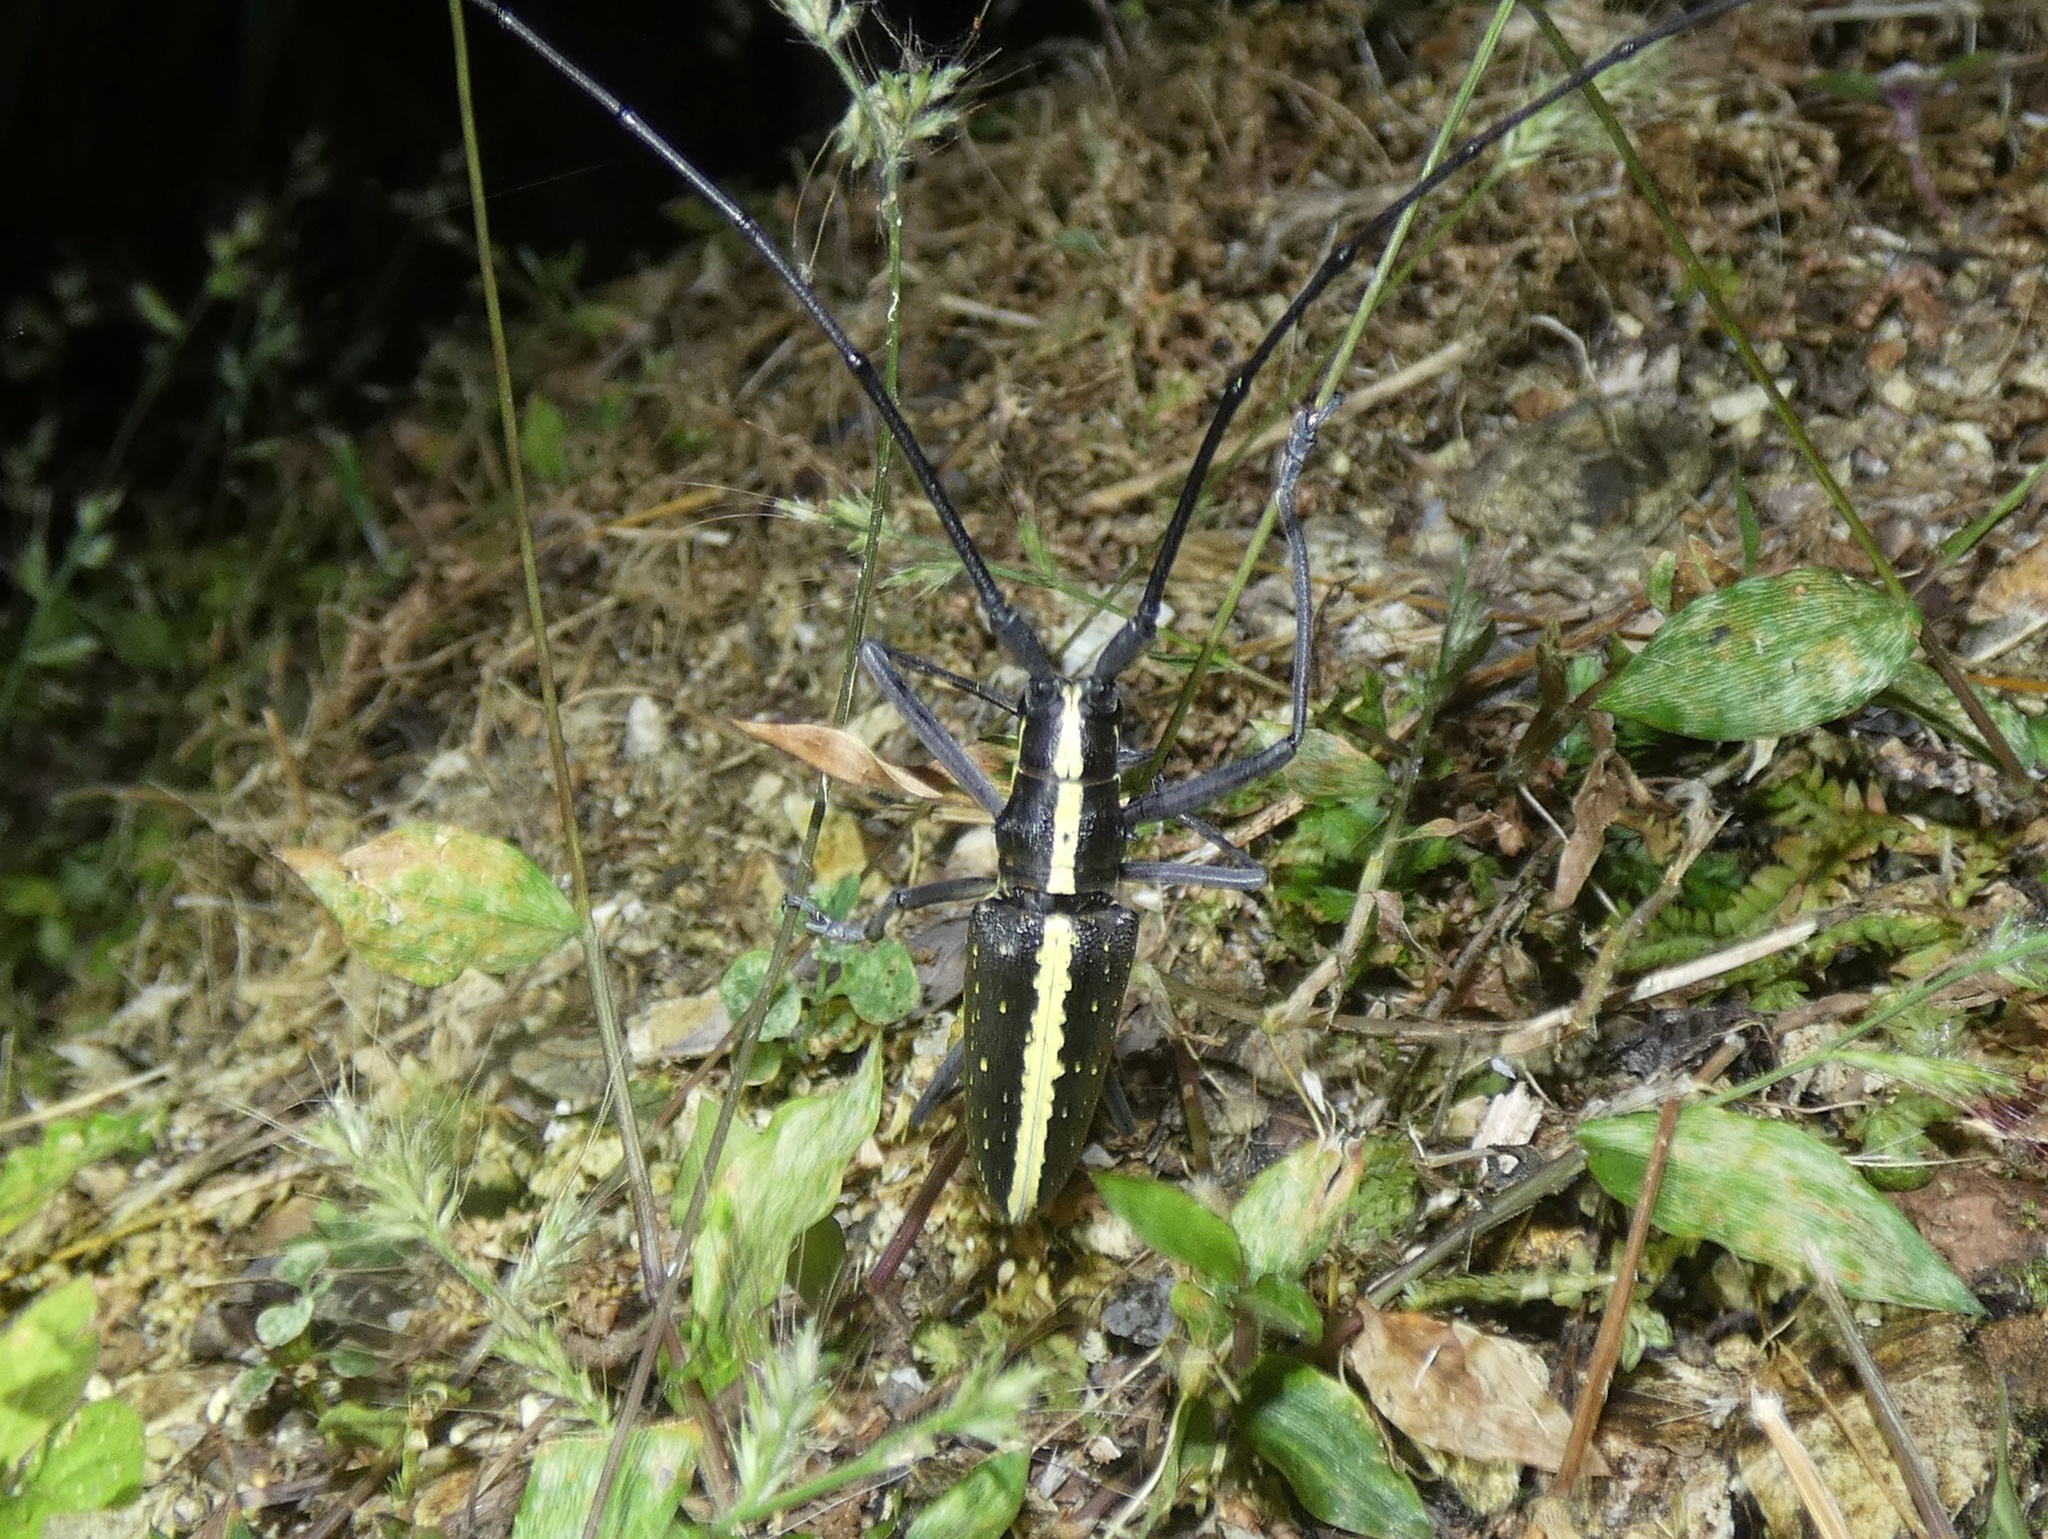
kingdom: Animalia
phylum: Arthropoda
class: Insecta
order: Coleoptera
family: Cerambycidae
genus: Taeniotes
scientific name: Taeniotes scalatus
